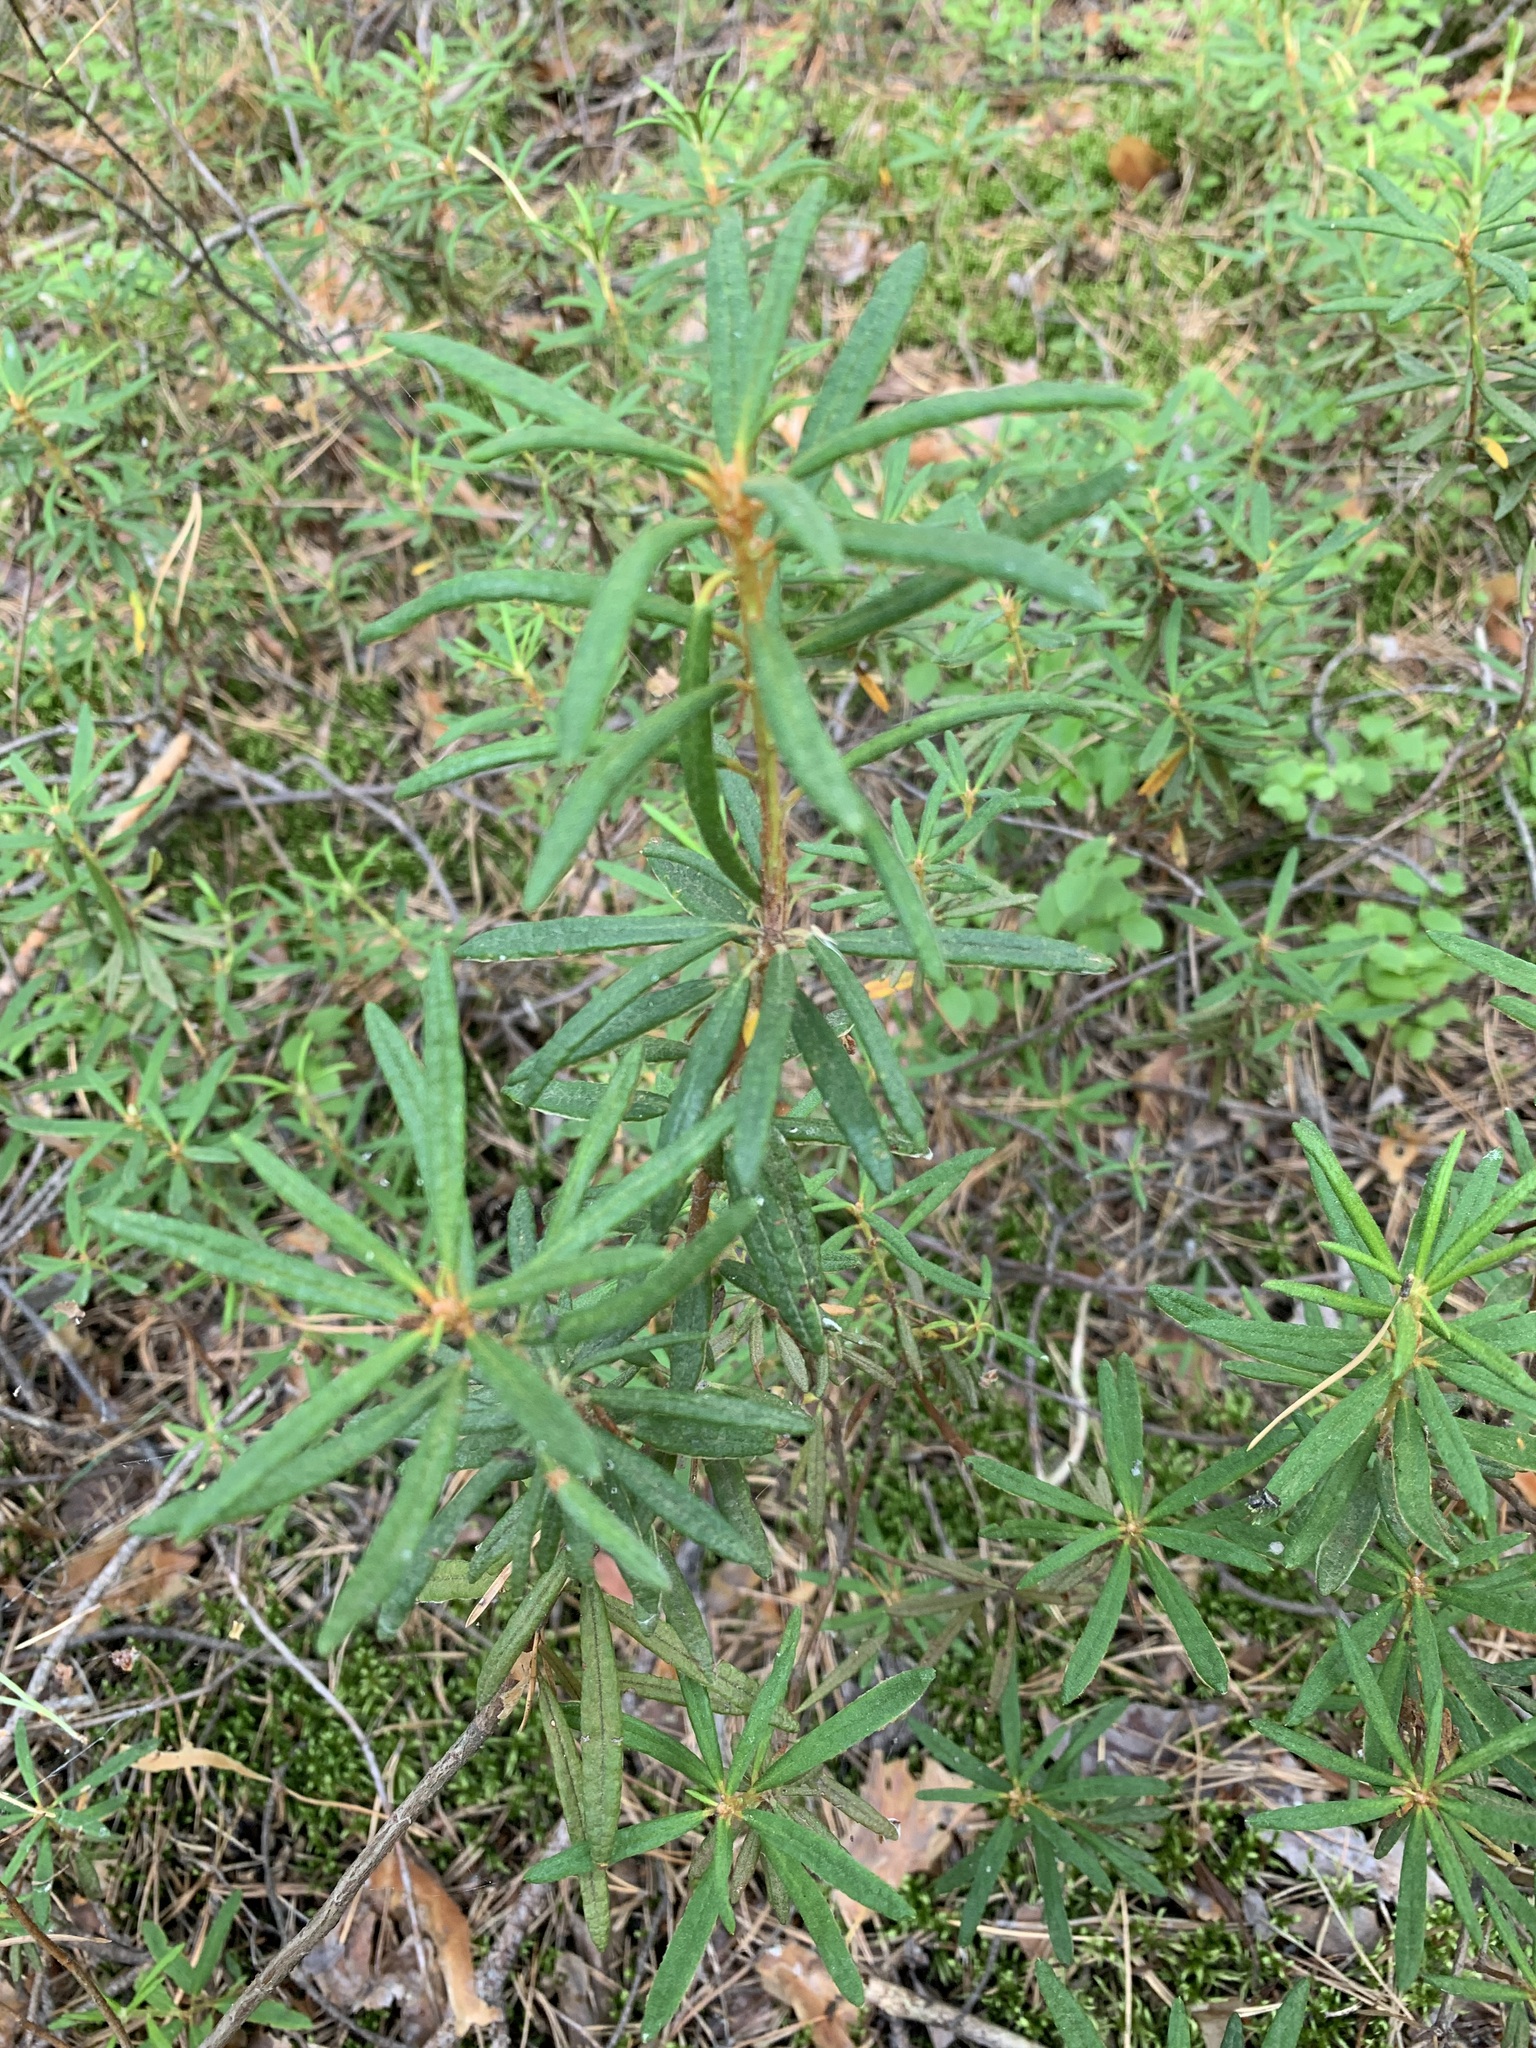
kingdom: Plantae
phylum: Tracheophyta
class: Magnoliopsida
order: Ericales
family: Ericaceae
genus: Rhododendron
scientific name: Rhododendron tomentosum
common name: Marsh labrador tea
